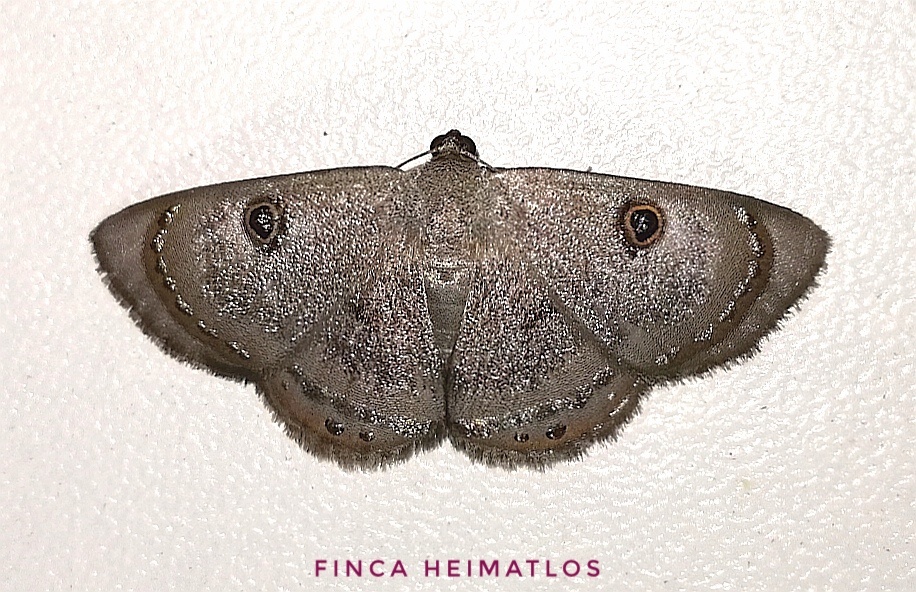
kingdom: Animalia
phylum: Arthropoda
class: Insecta
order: Lepidoptera
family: Geometridae
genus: Argyrotome
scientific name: Argyrotome melae
